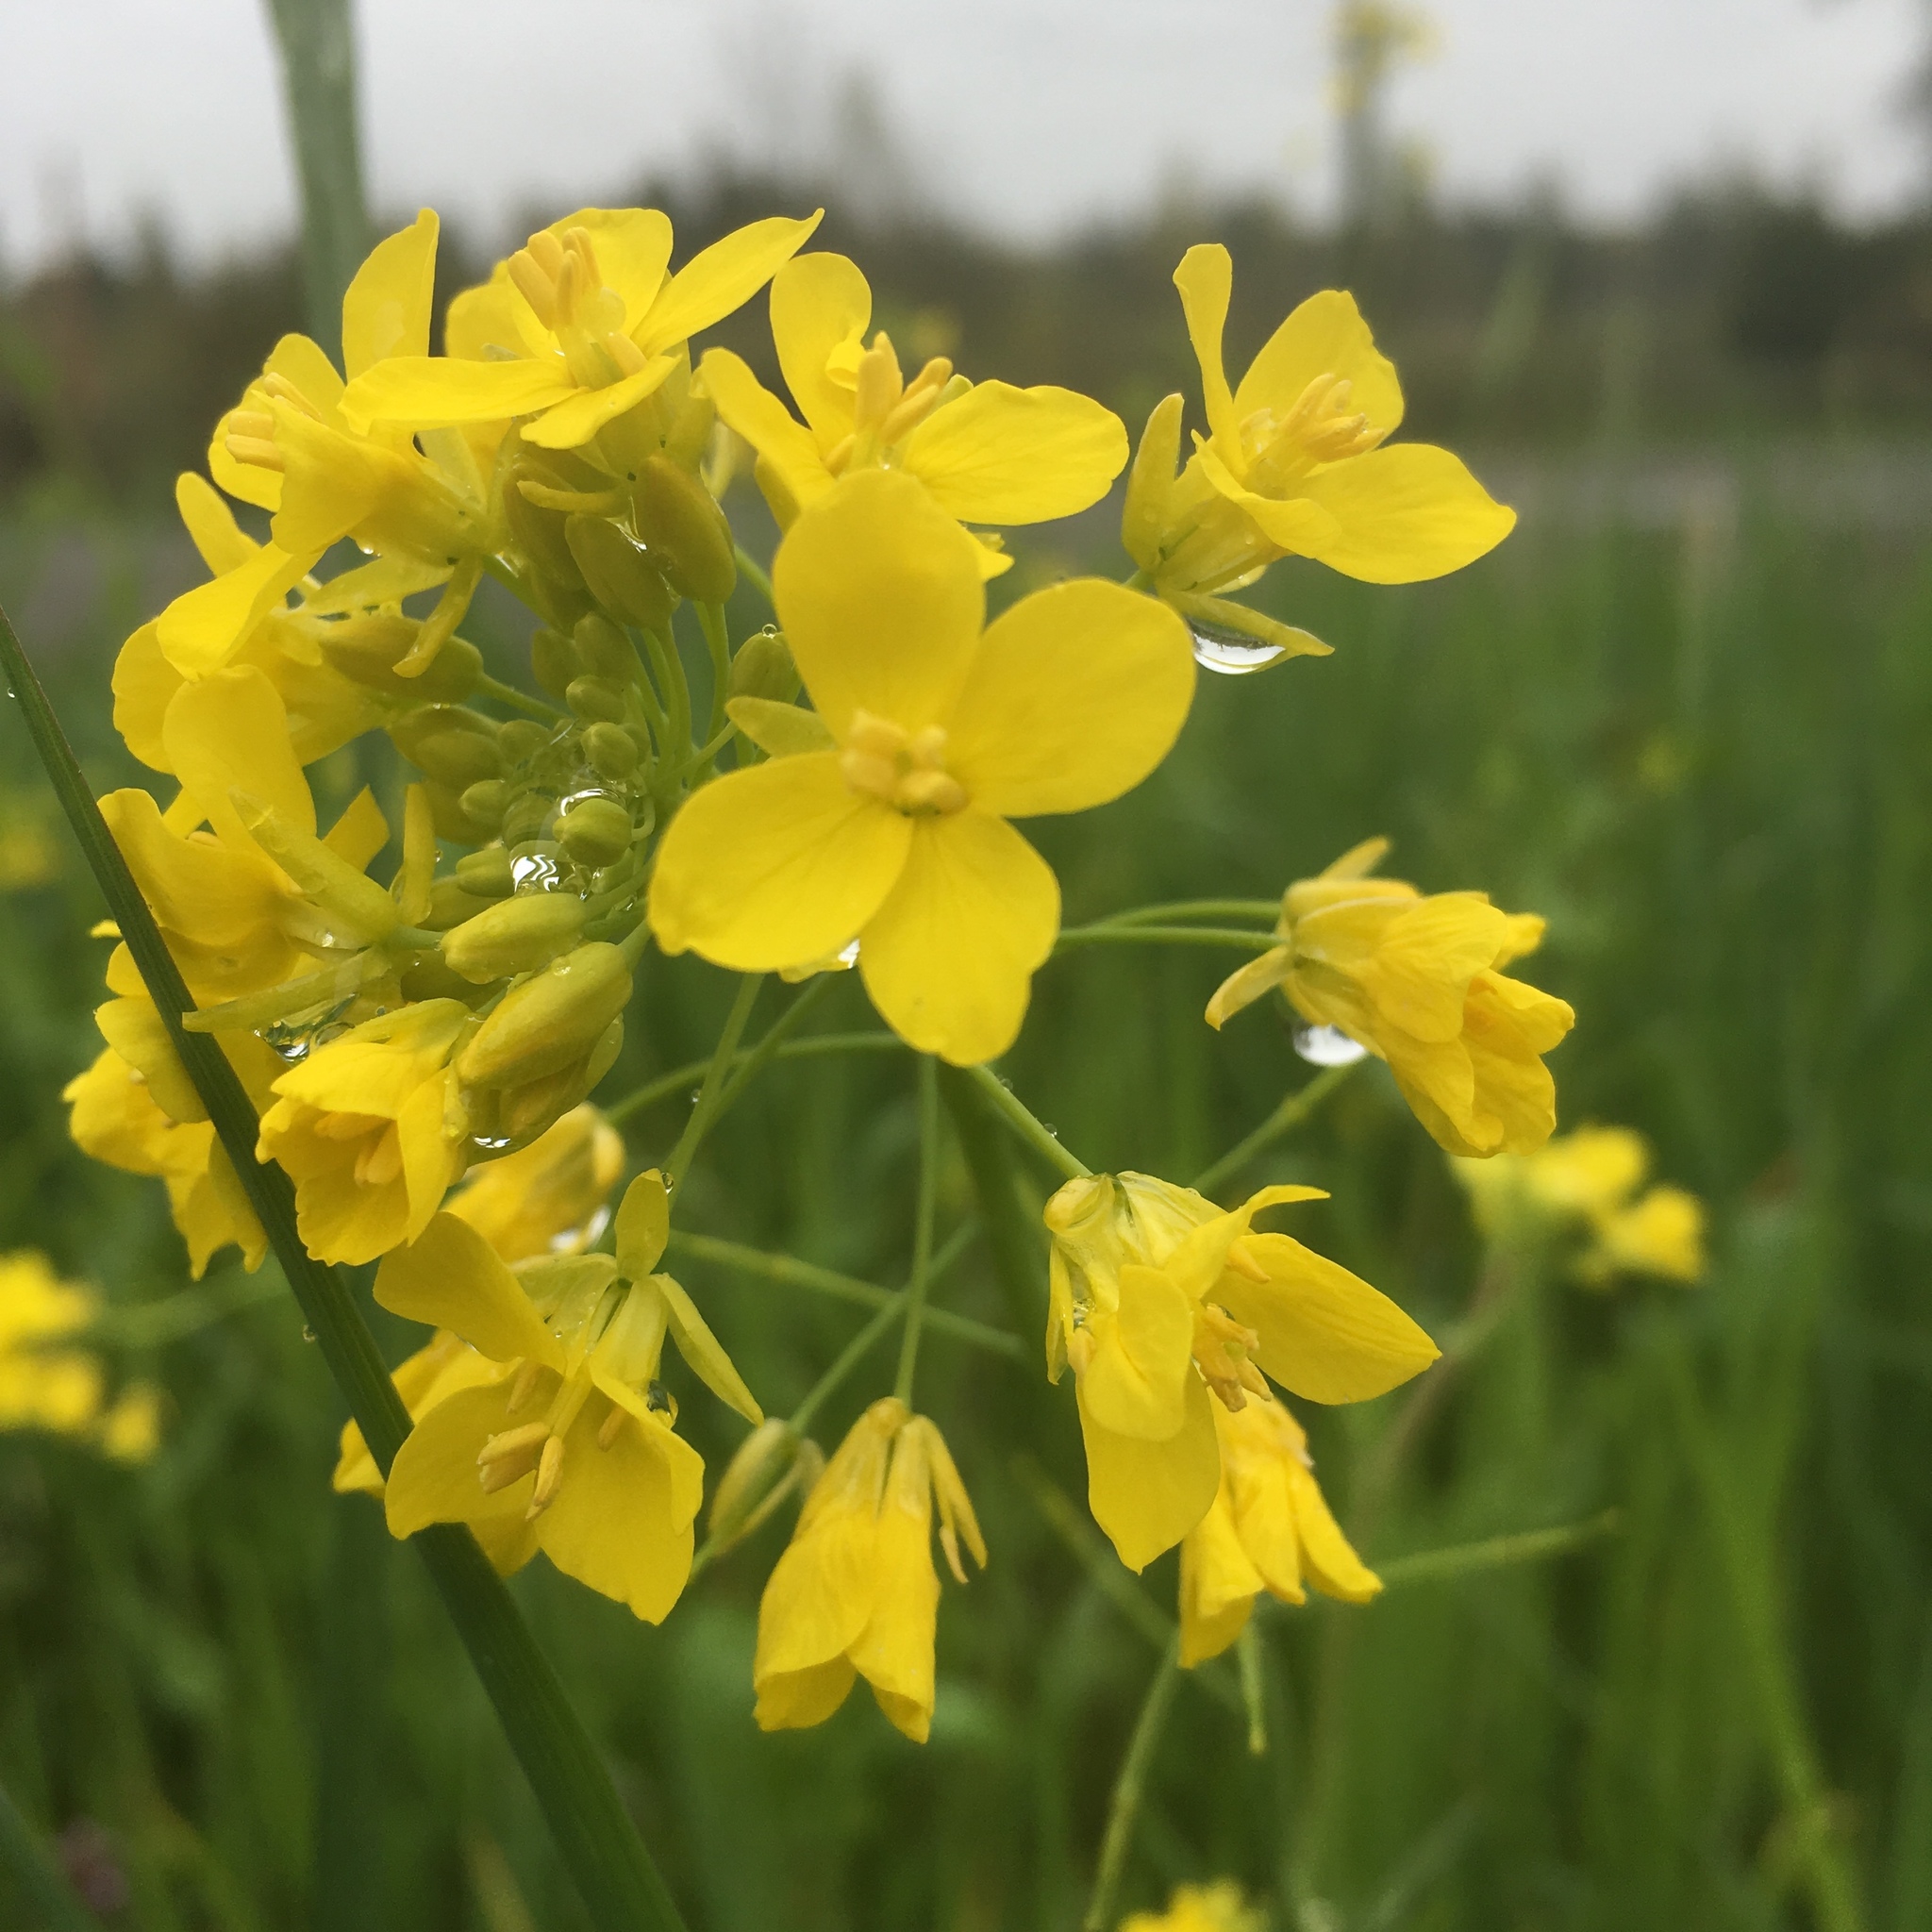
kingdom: Plantae
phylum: Tracheophyta
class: Magnoliopsida
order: Brassicales
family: Brassicaceae
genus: Brassica
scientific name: Brassica rapa
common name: Field mustard
